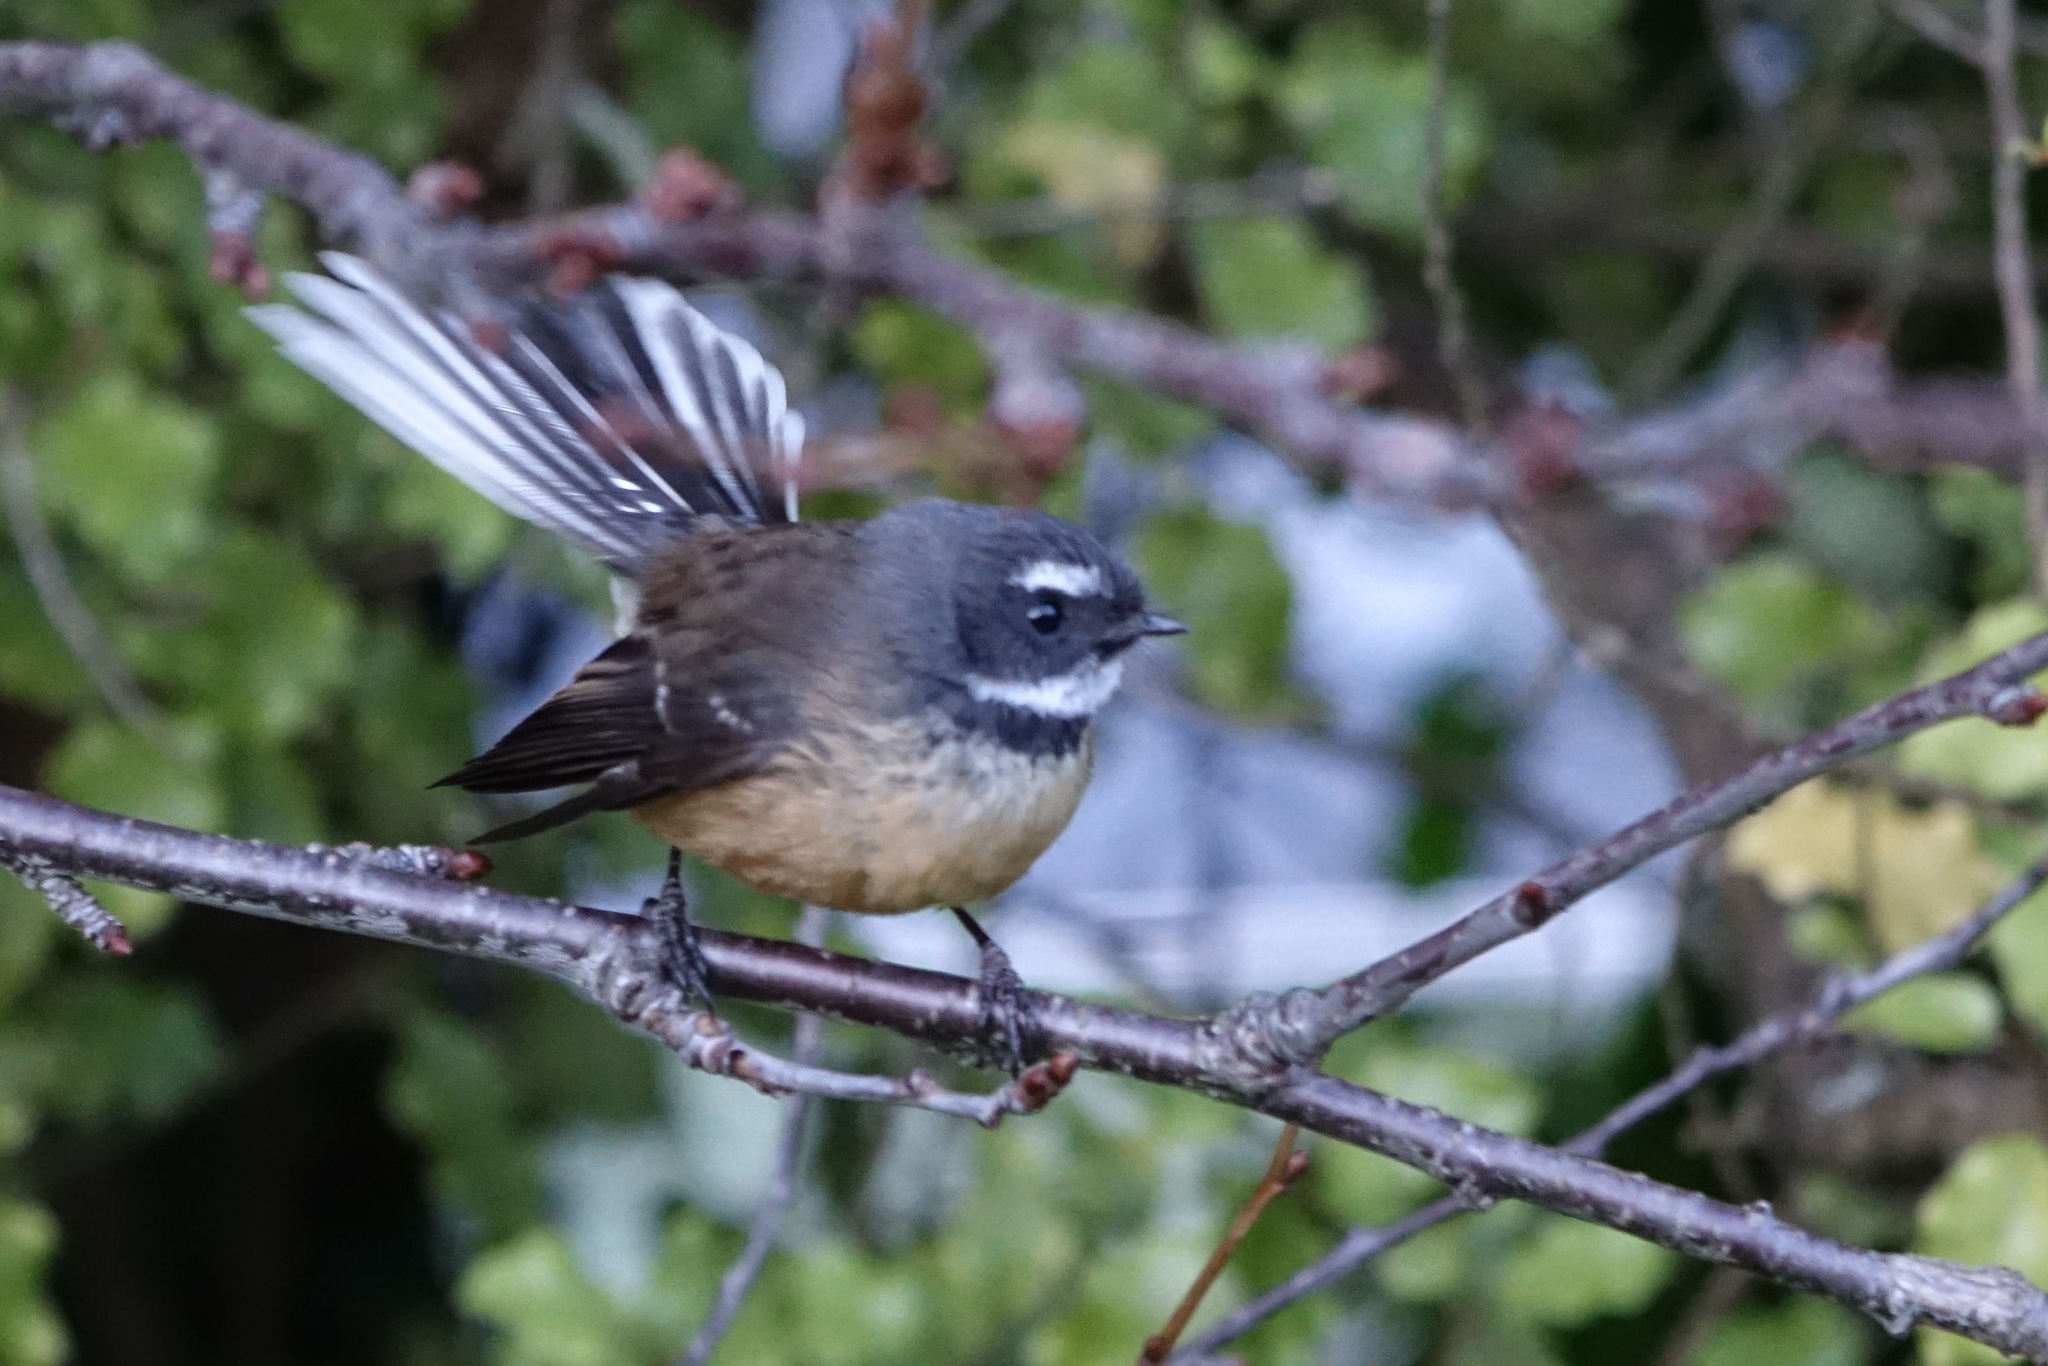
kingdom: Animalia
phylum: Chordata
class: Aves
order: Passeriformes
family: Rhipiduridae
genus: Rhipidura
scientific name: Rhipidura fuliginosa
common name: New zealand fantail
